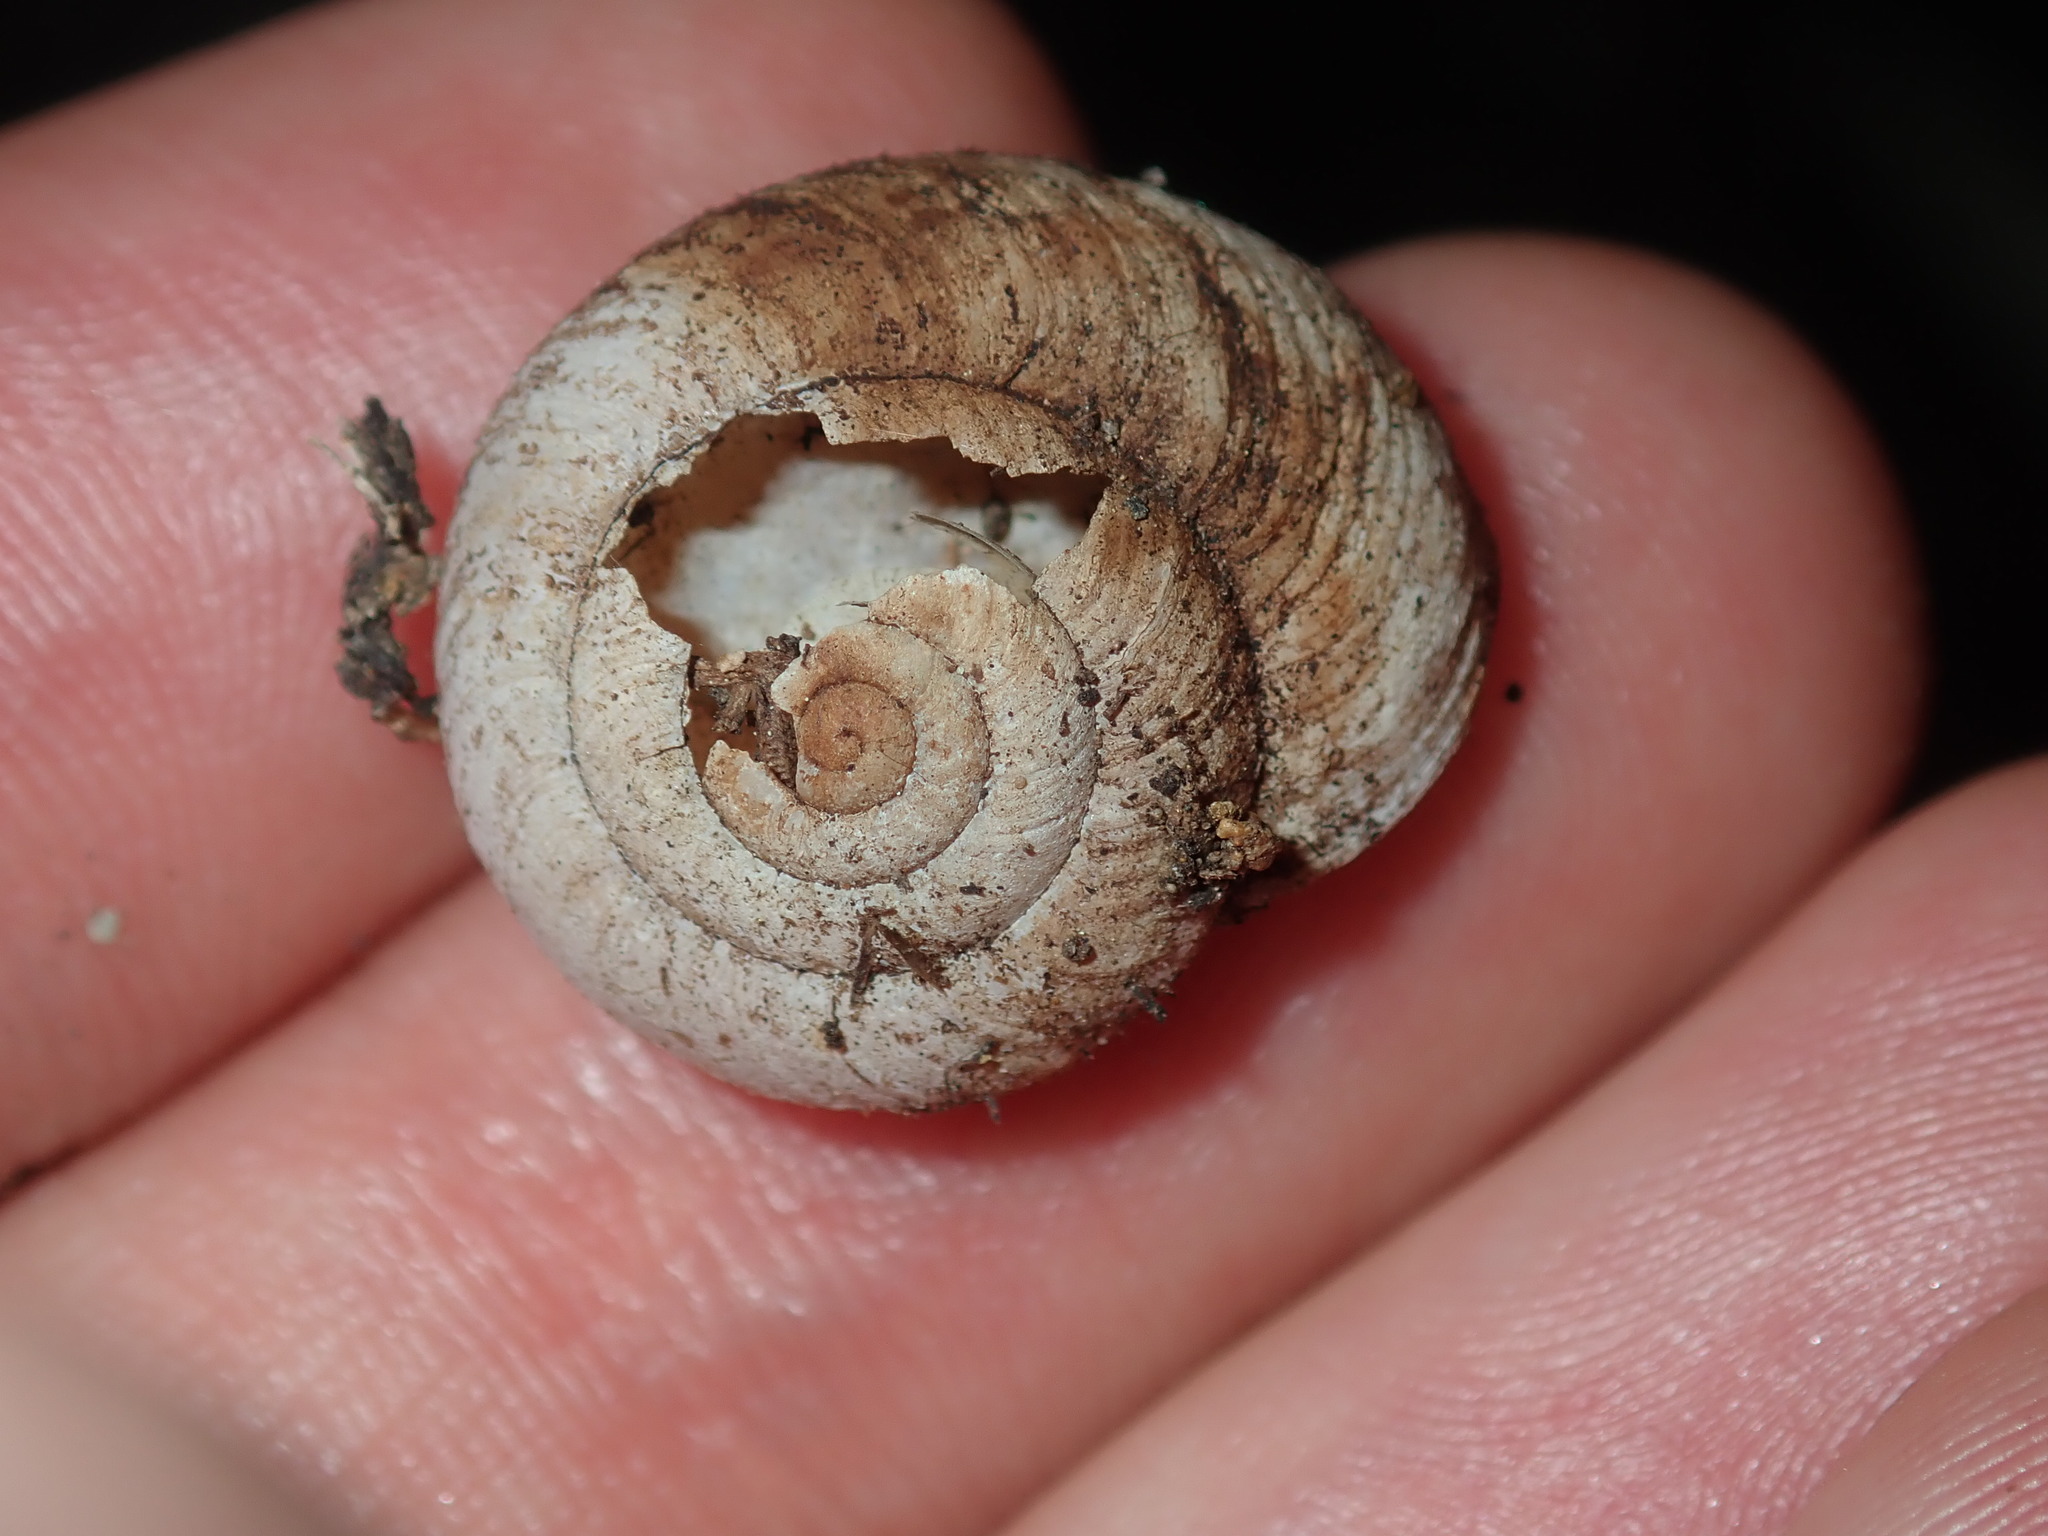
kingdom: Animalia
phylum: Mollusca
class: Gastropoda
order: Stylommatophora
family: Camaenidae
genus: Sauroconcha
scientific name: Sauroconcha sheai
